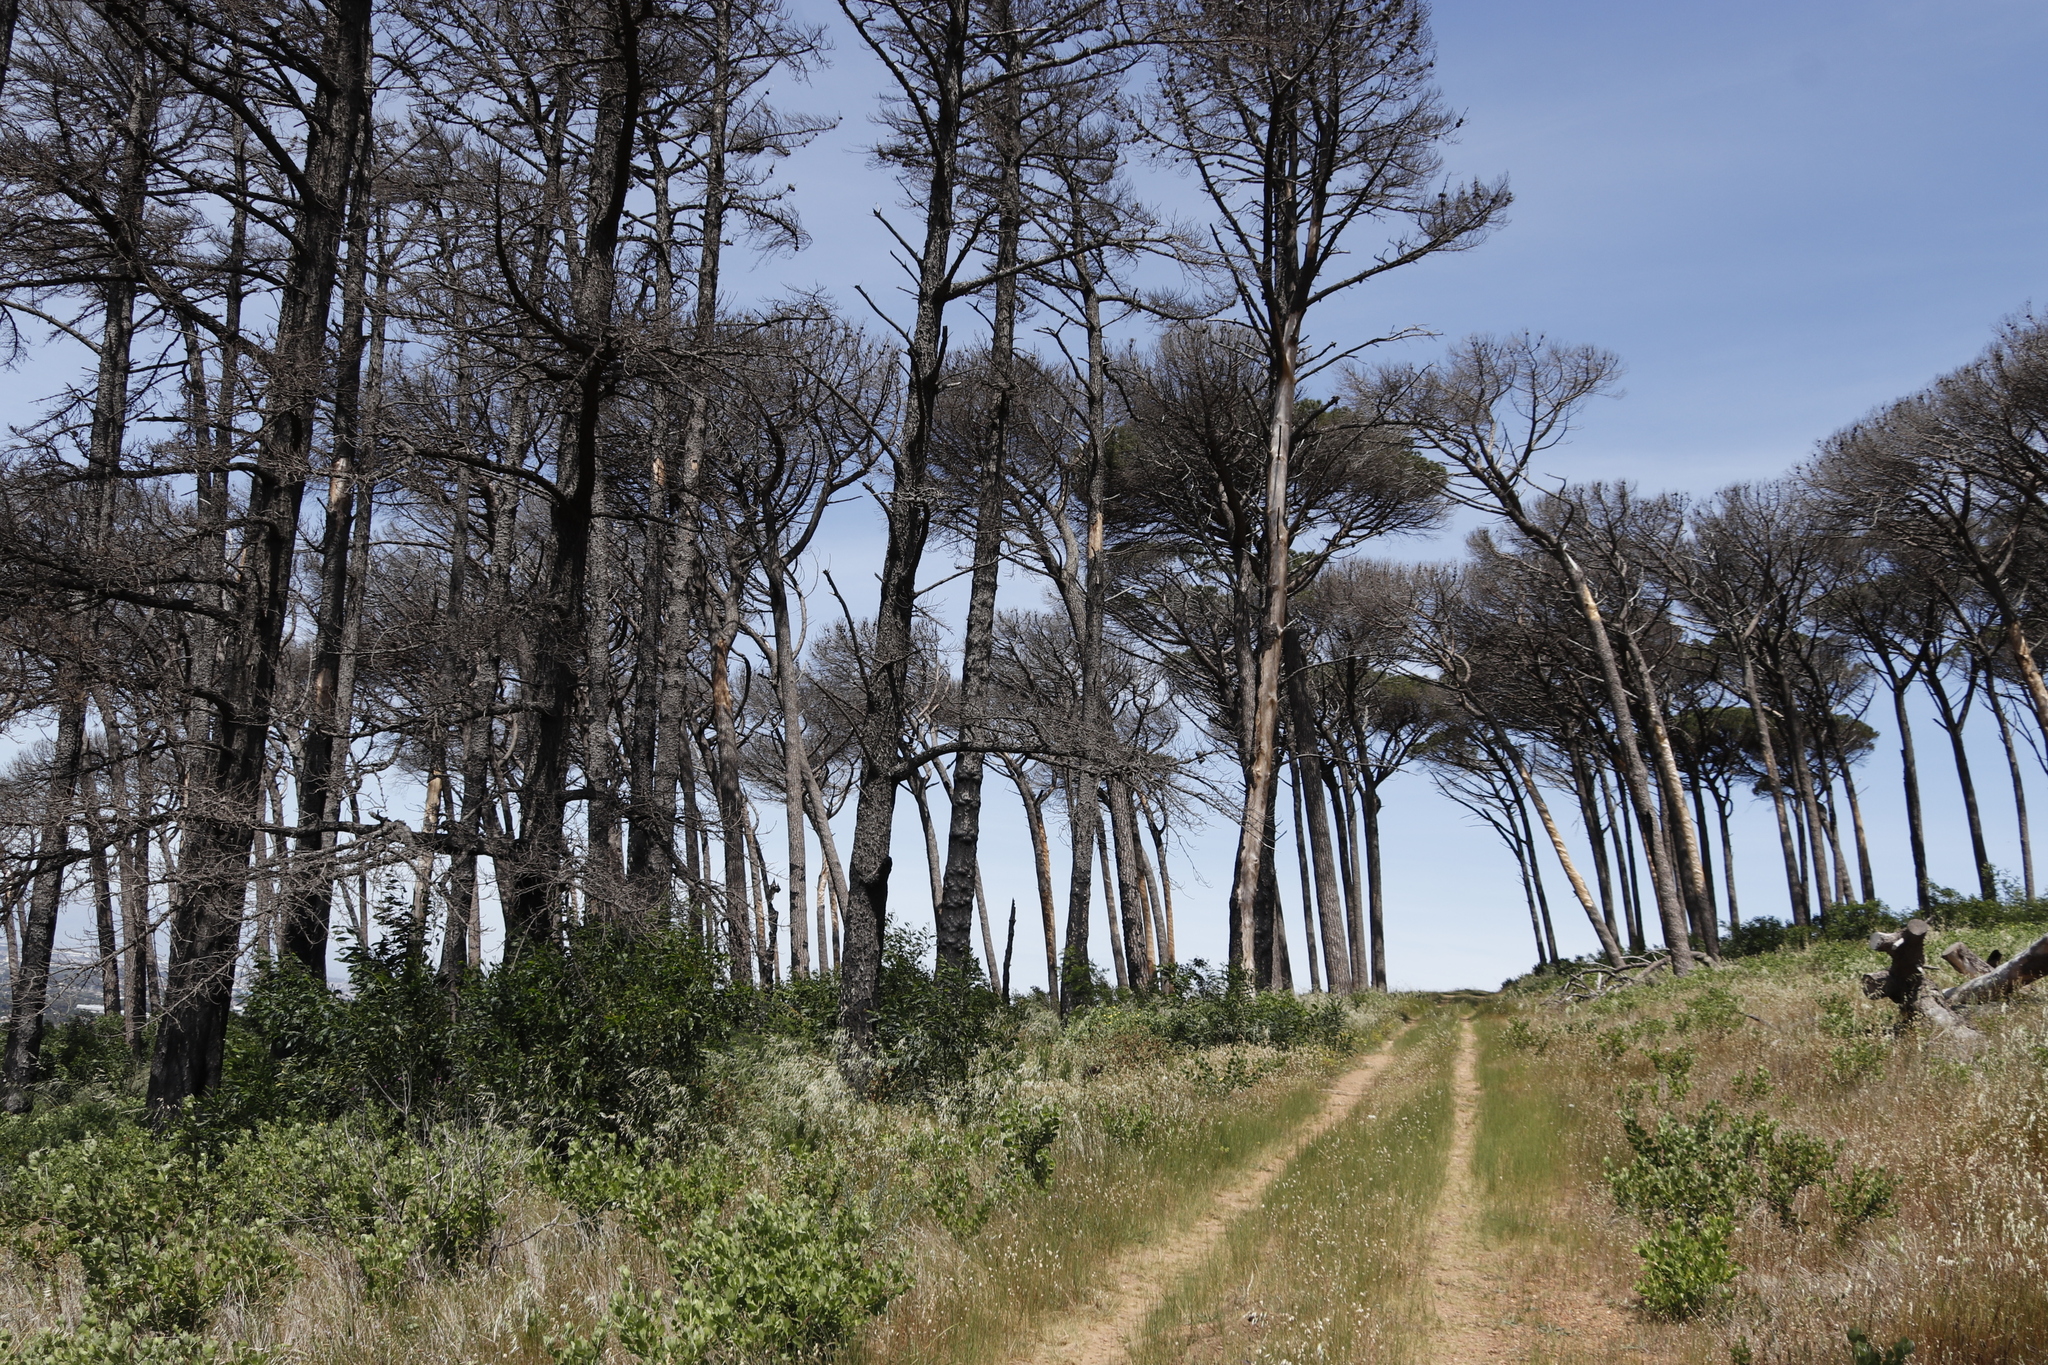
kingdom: Plantae
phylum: Tracheophyta
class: Pinopsida
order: Pinales
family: Pinaceae
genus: Pinus
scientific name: Pinus pinea
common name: Italian stone pine
